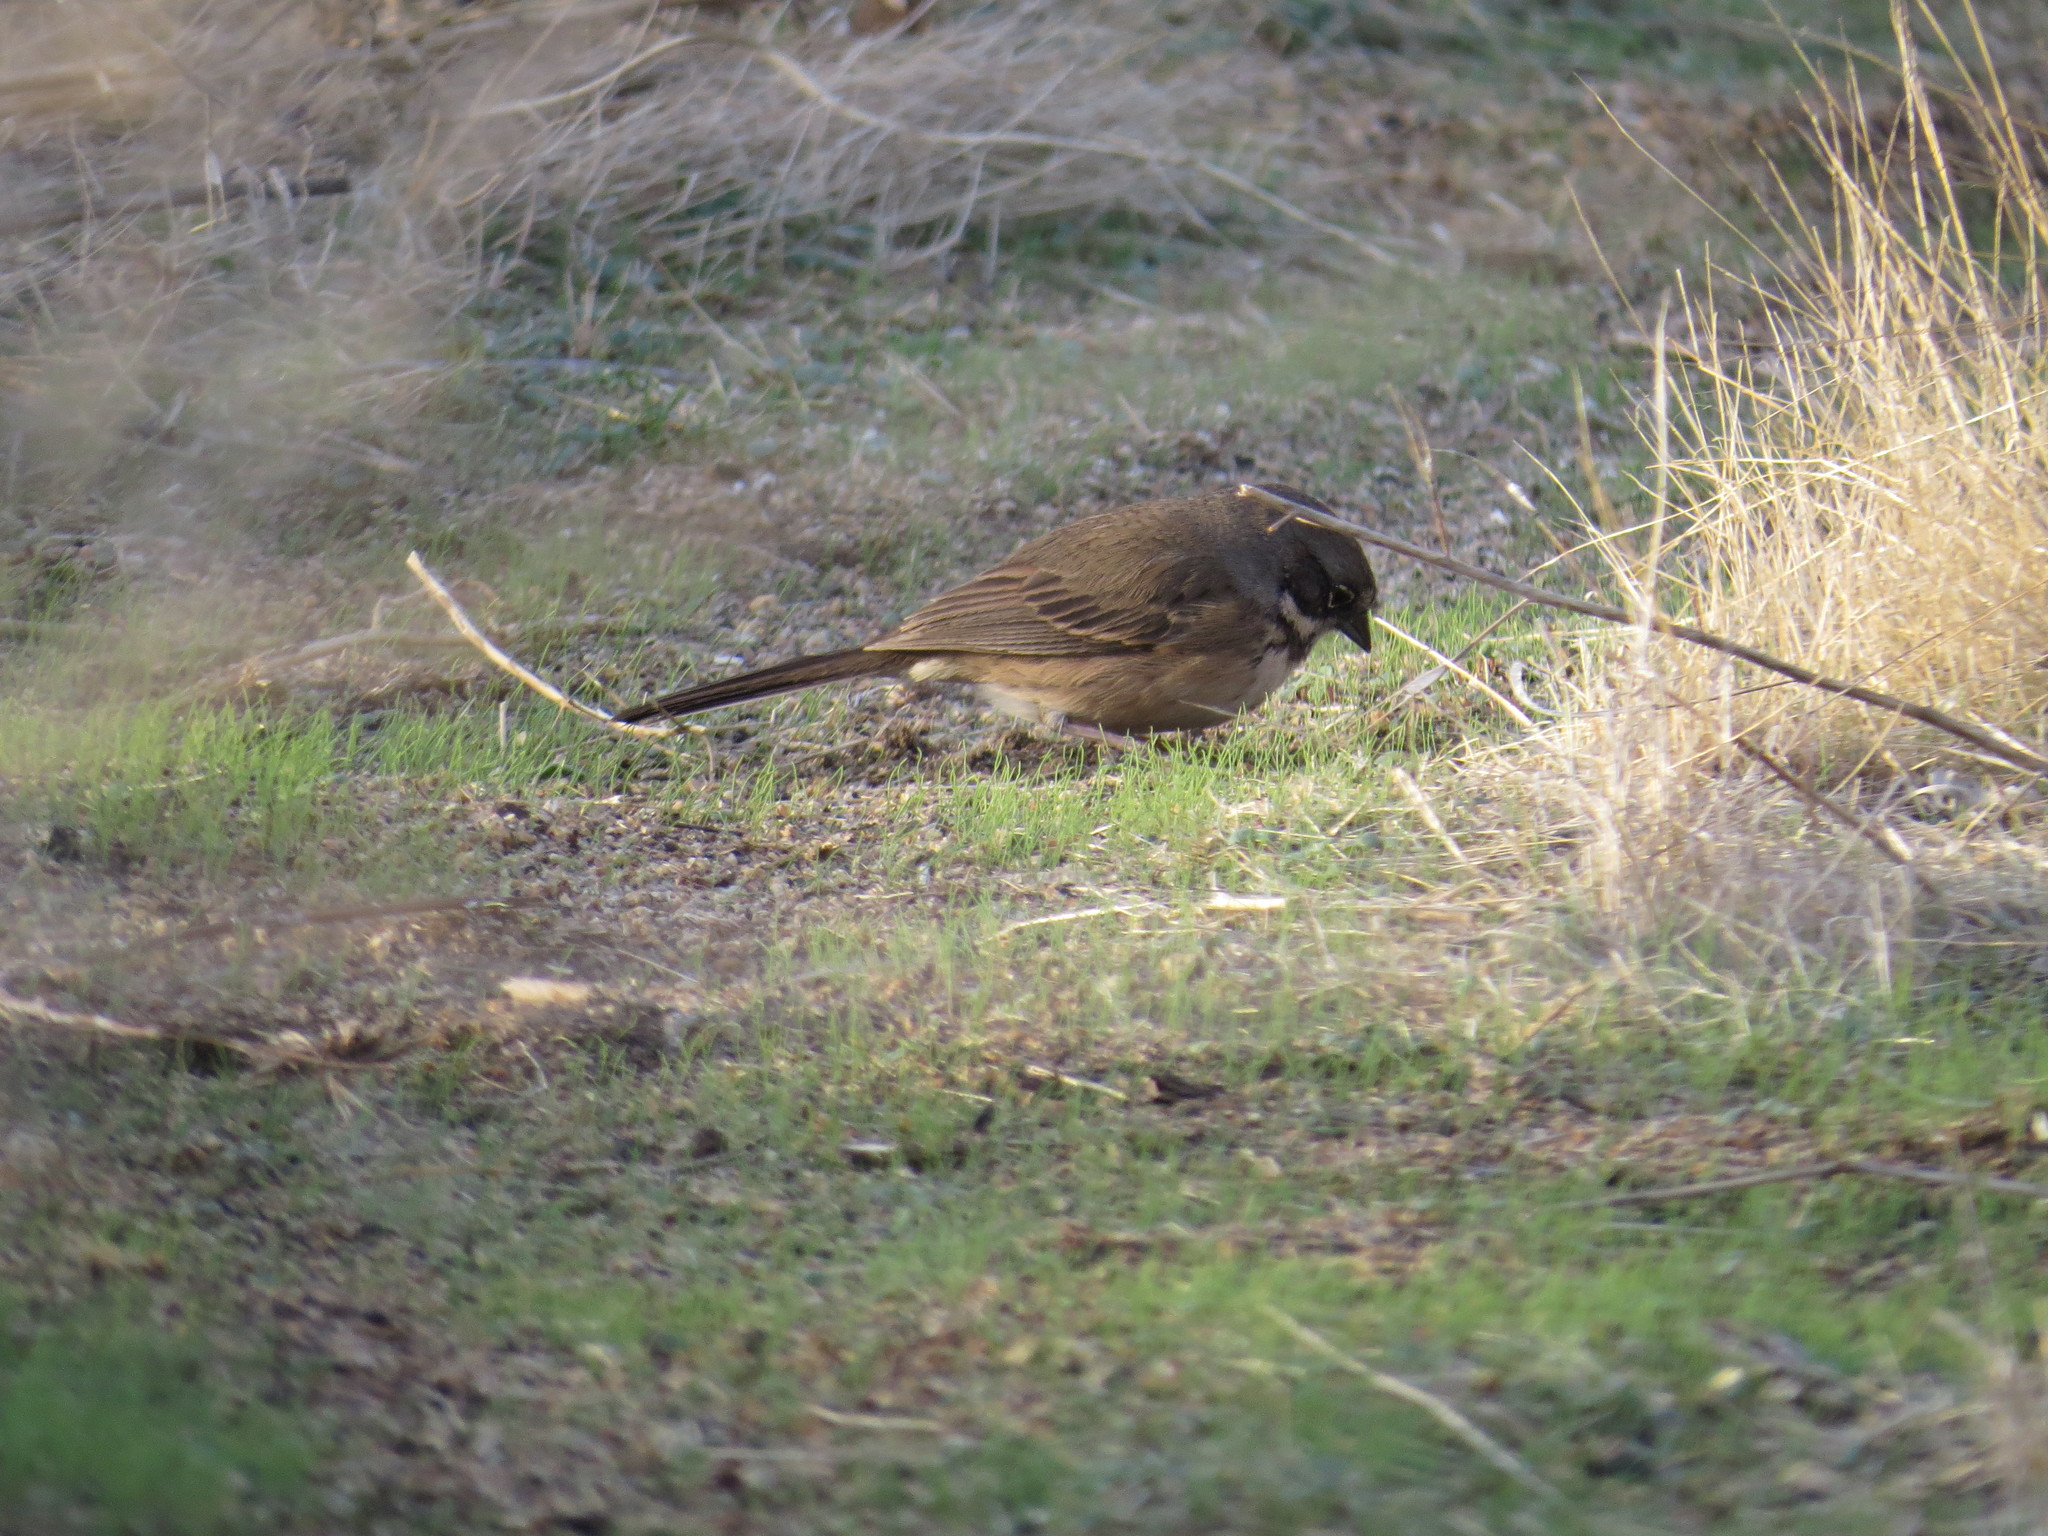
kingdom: Animalia
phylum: Chordata
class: Aves
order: Passeriformes
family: Passerellidae
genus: Artemisiospiza
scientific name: Artemisiospiza belli
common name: Bell's sparrow
